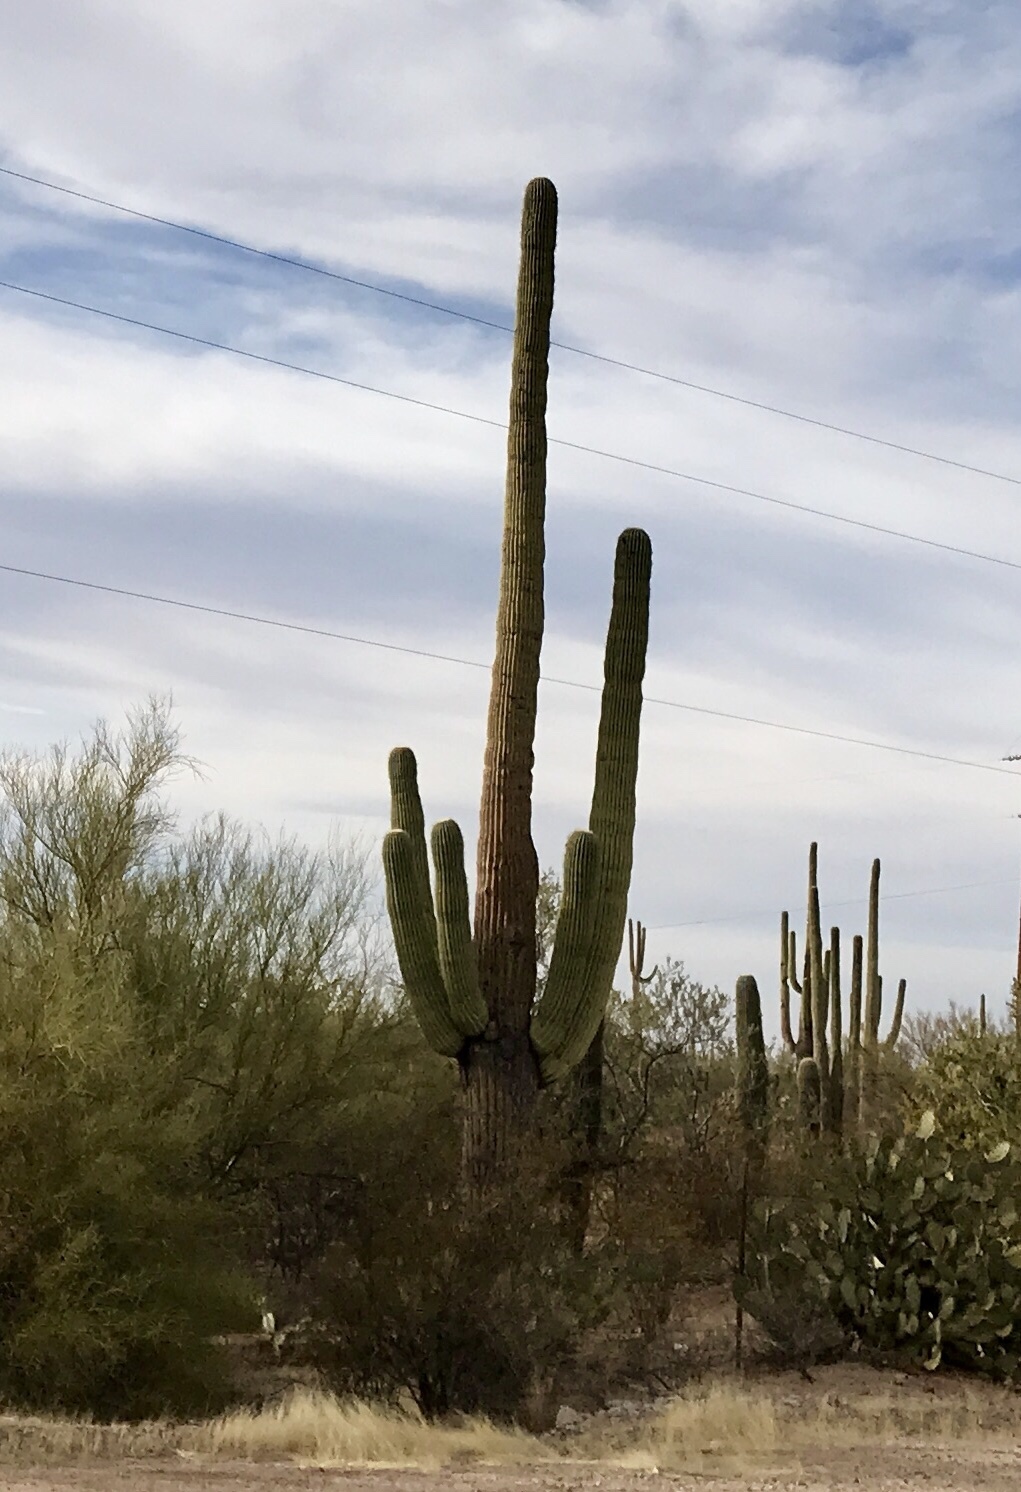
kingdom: Plantae
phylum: Tracheophyta
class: Magnoliopsida
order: Caryophyllales
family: Cactaceae
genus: Carnegiea
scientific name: Carnegiea gigantea
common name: Saguaro
